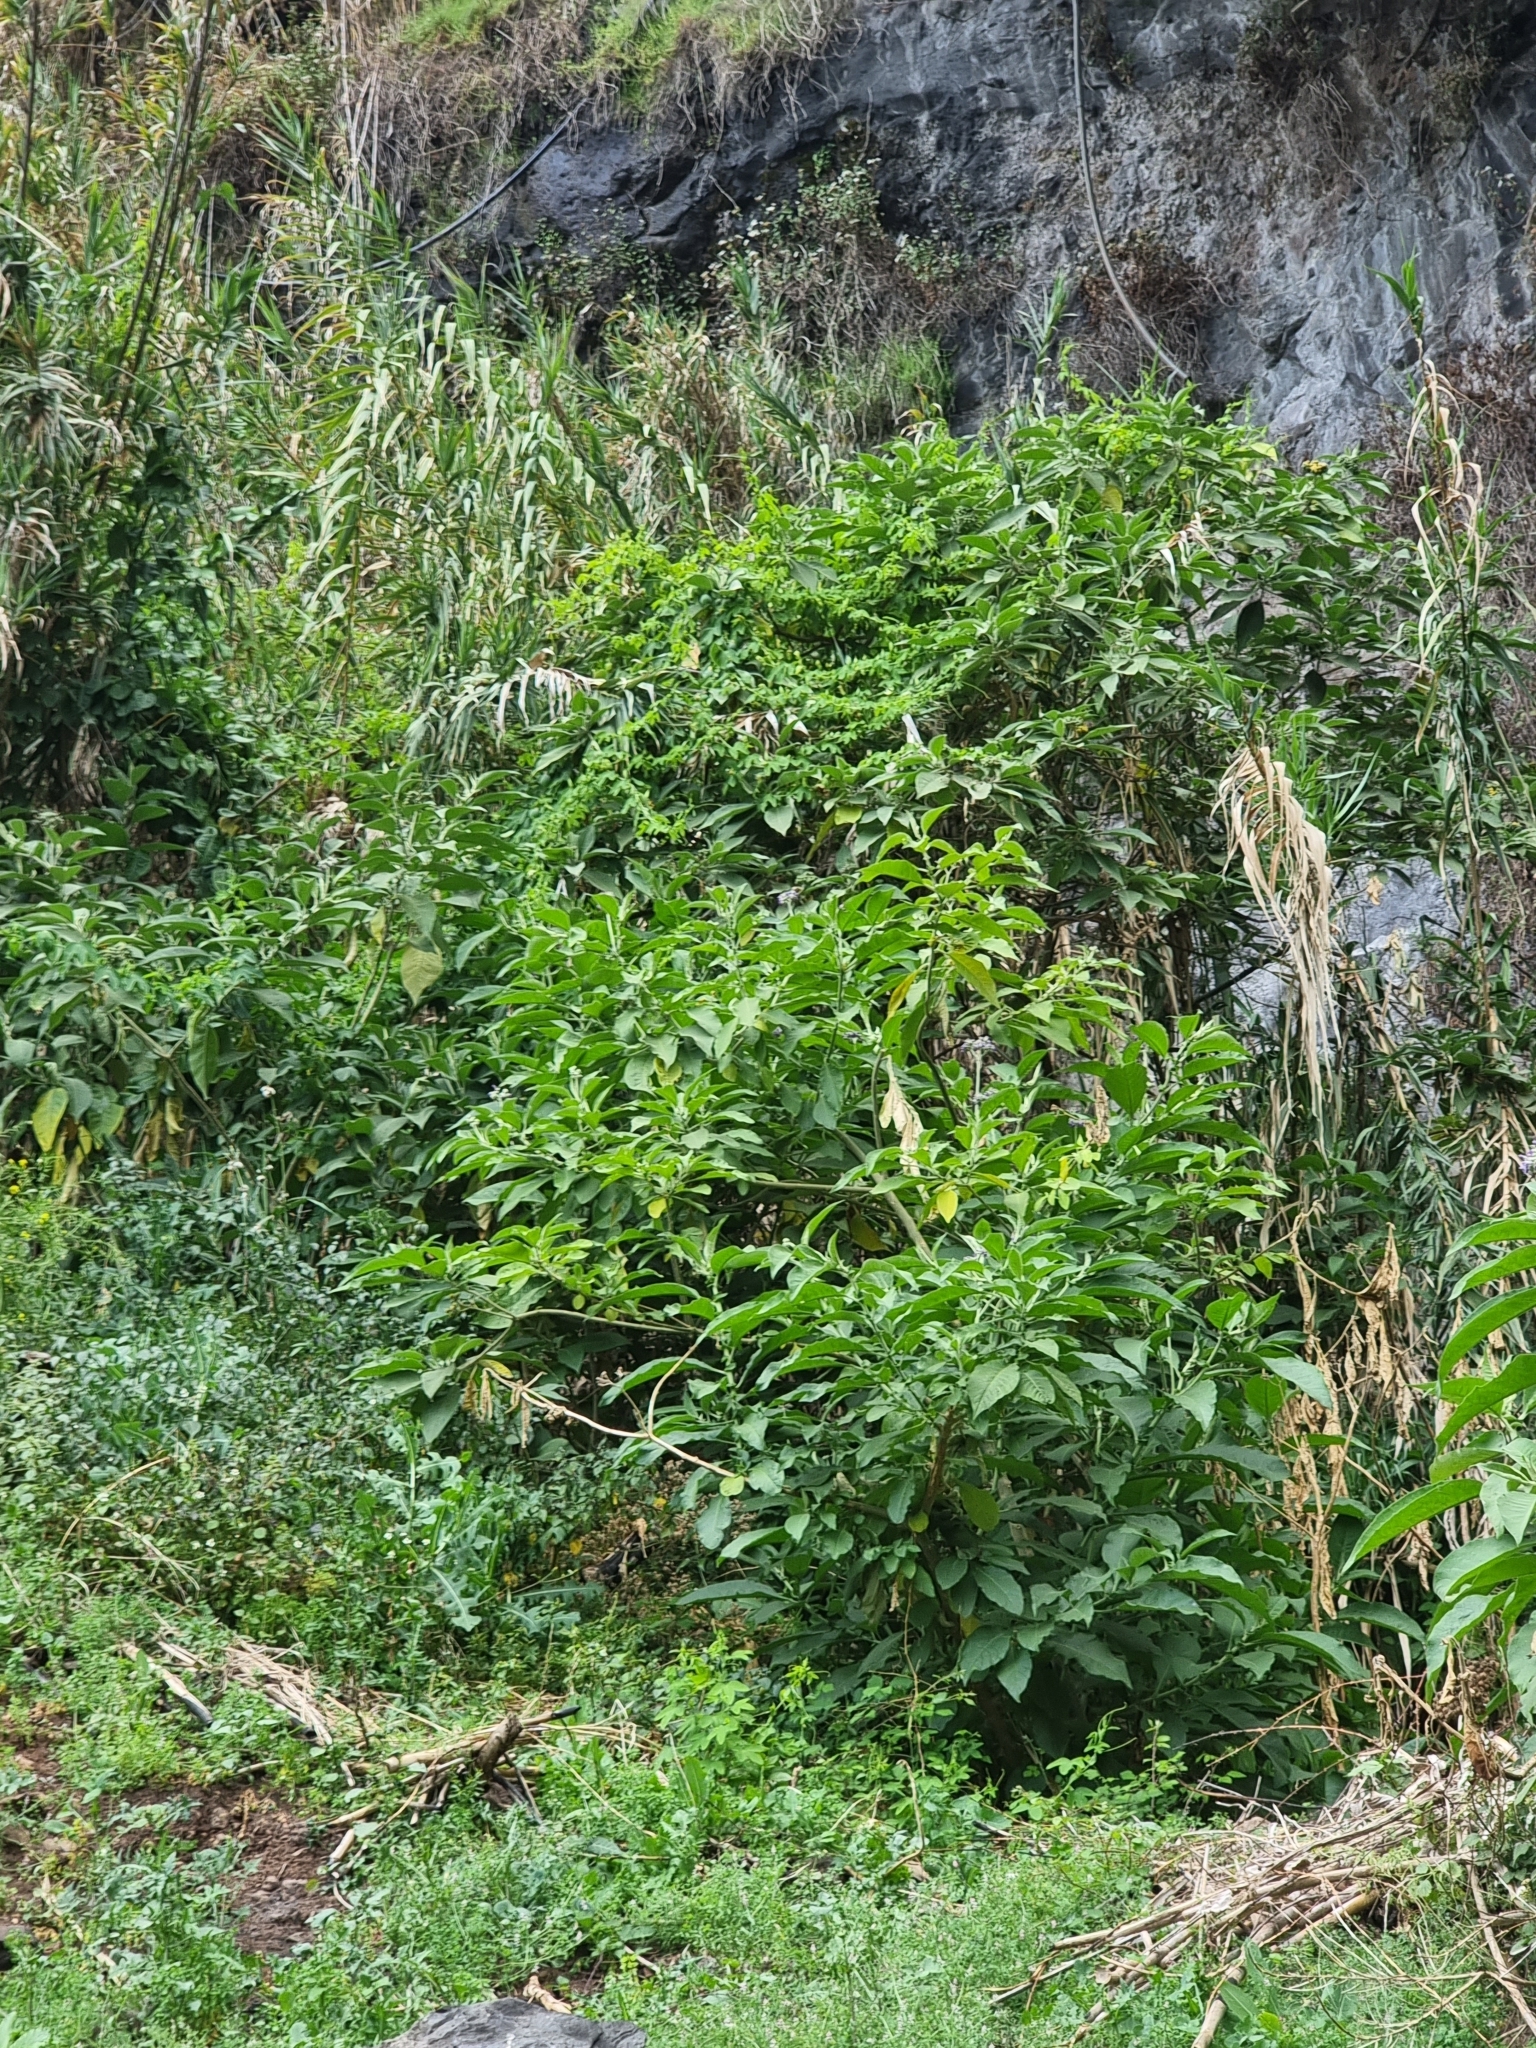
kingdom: Plantae
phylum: Tracheophyta
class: Magnoliopsida
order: Solanales
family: Solanaceae
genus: Solanum
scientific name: Solanum mauritianum
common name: Earleaf nightshade
